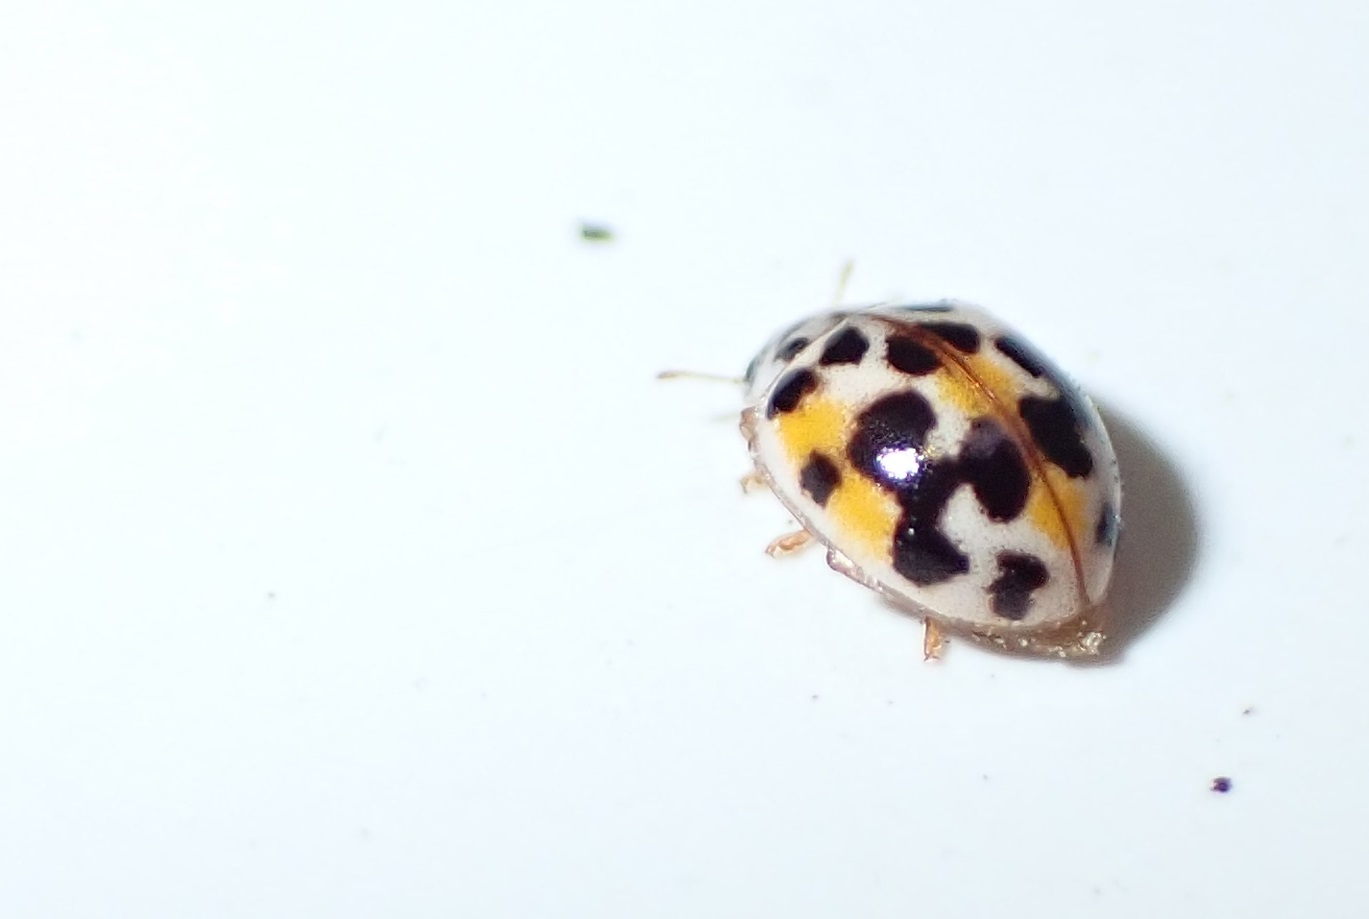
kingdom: Animalia
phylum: Arthropoda
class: Insecta
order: Coleoptera
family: Coccinellidae
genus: Psyllobora
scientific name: Psyllobora vigintimaculata
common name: Ladybird beetle
